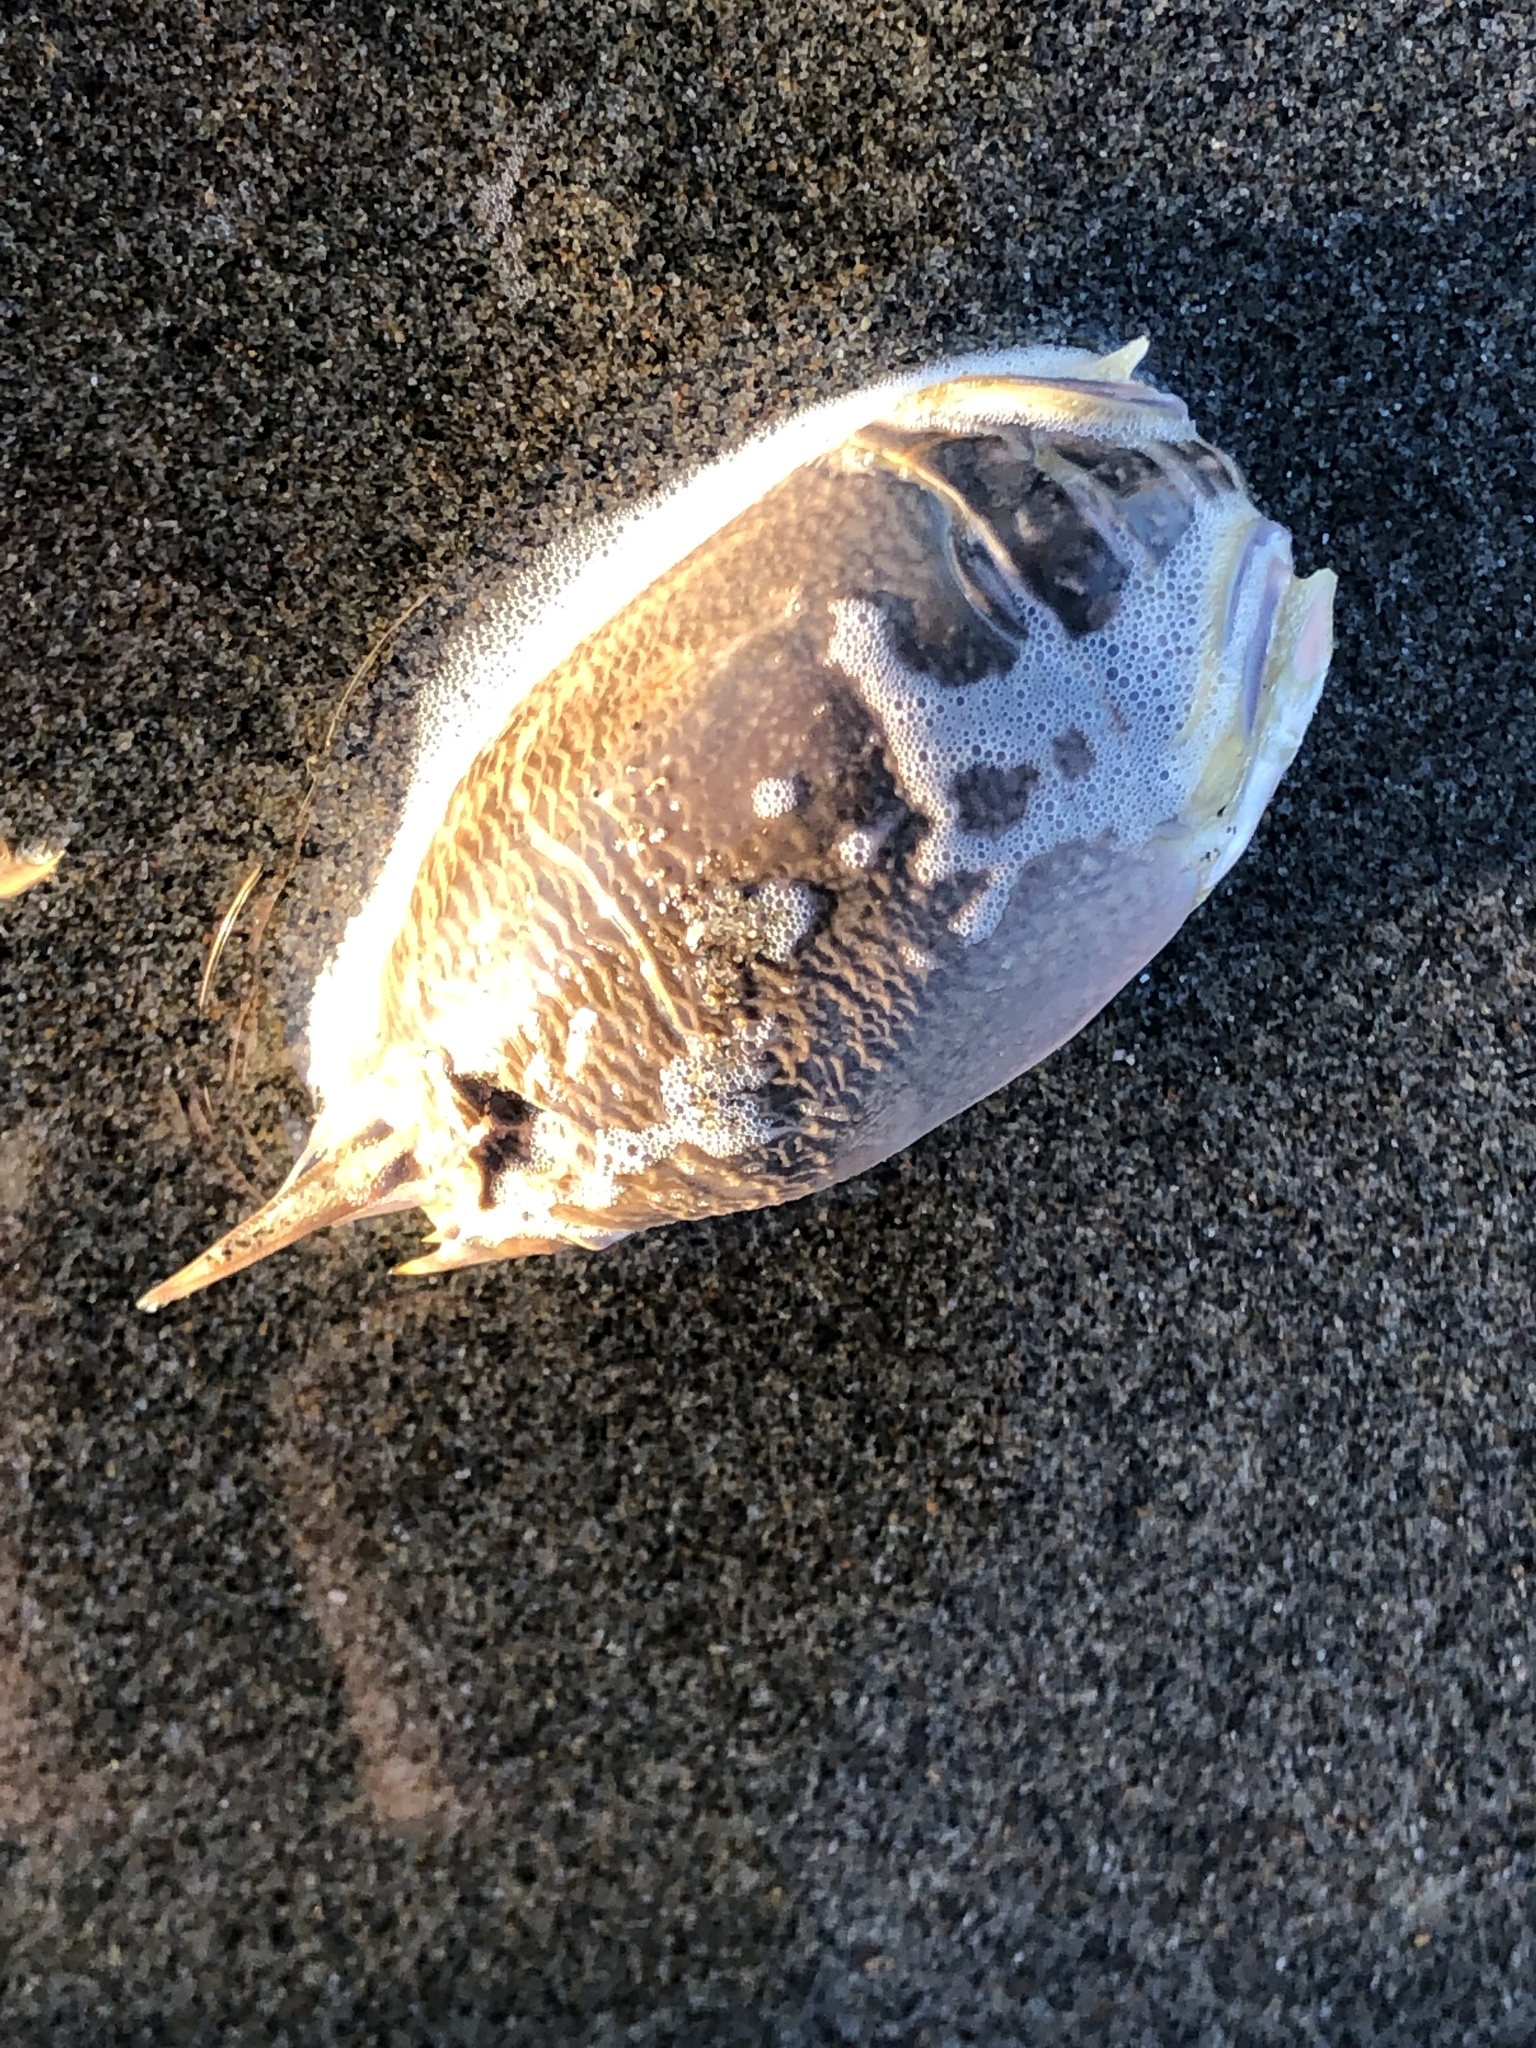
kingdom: Animalia
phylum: Arthropoda
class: Malacostraca
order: Decapoda
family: Hippidae
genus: Emerita
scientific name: Emerita analoga
